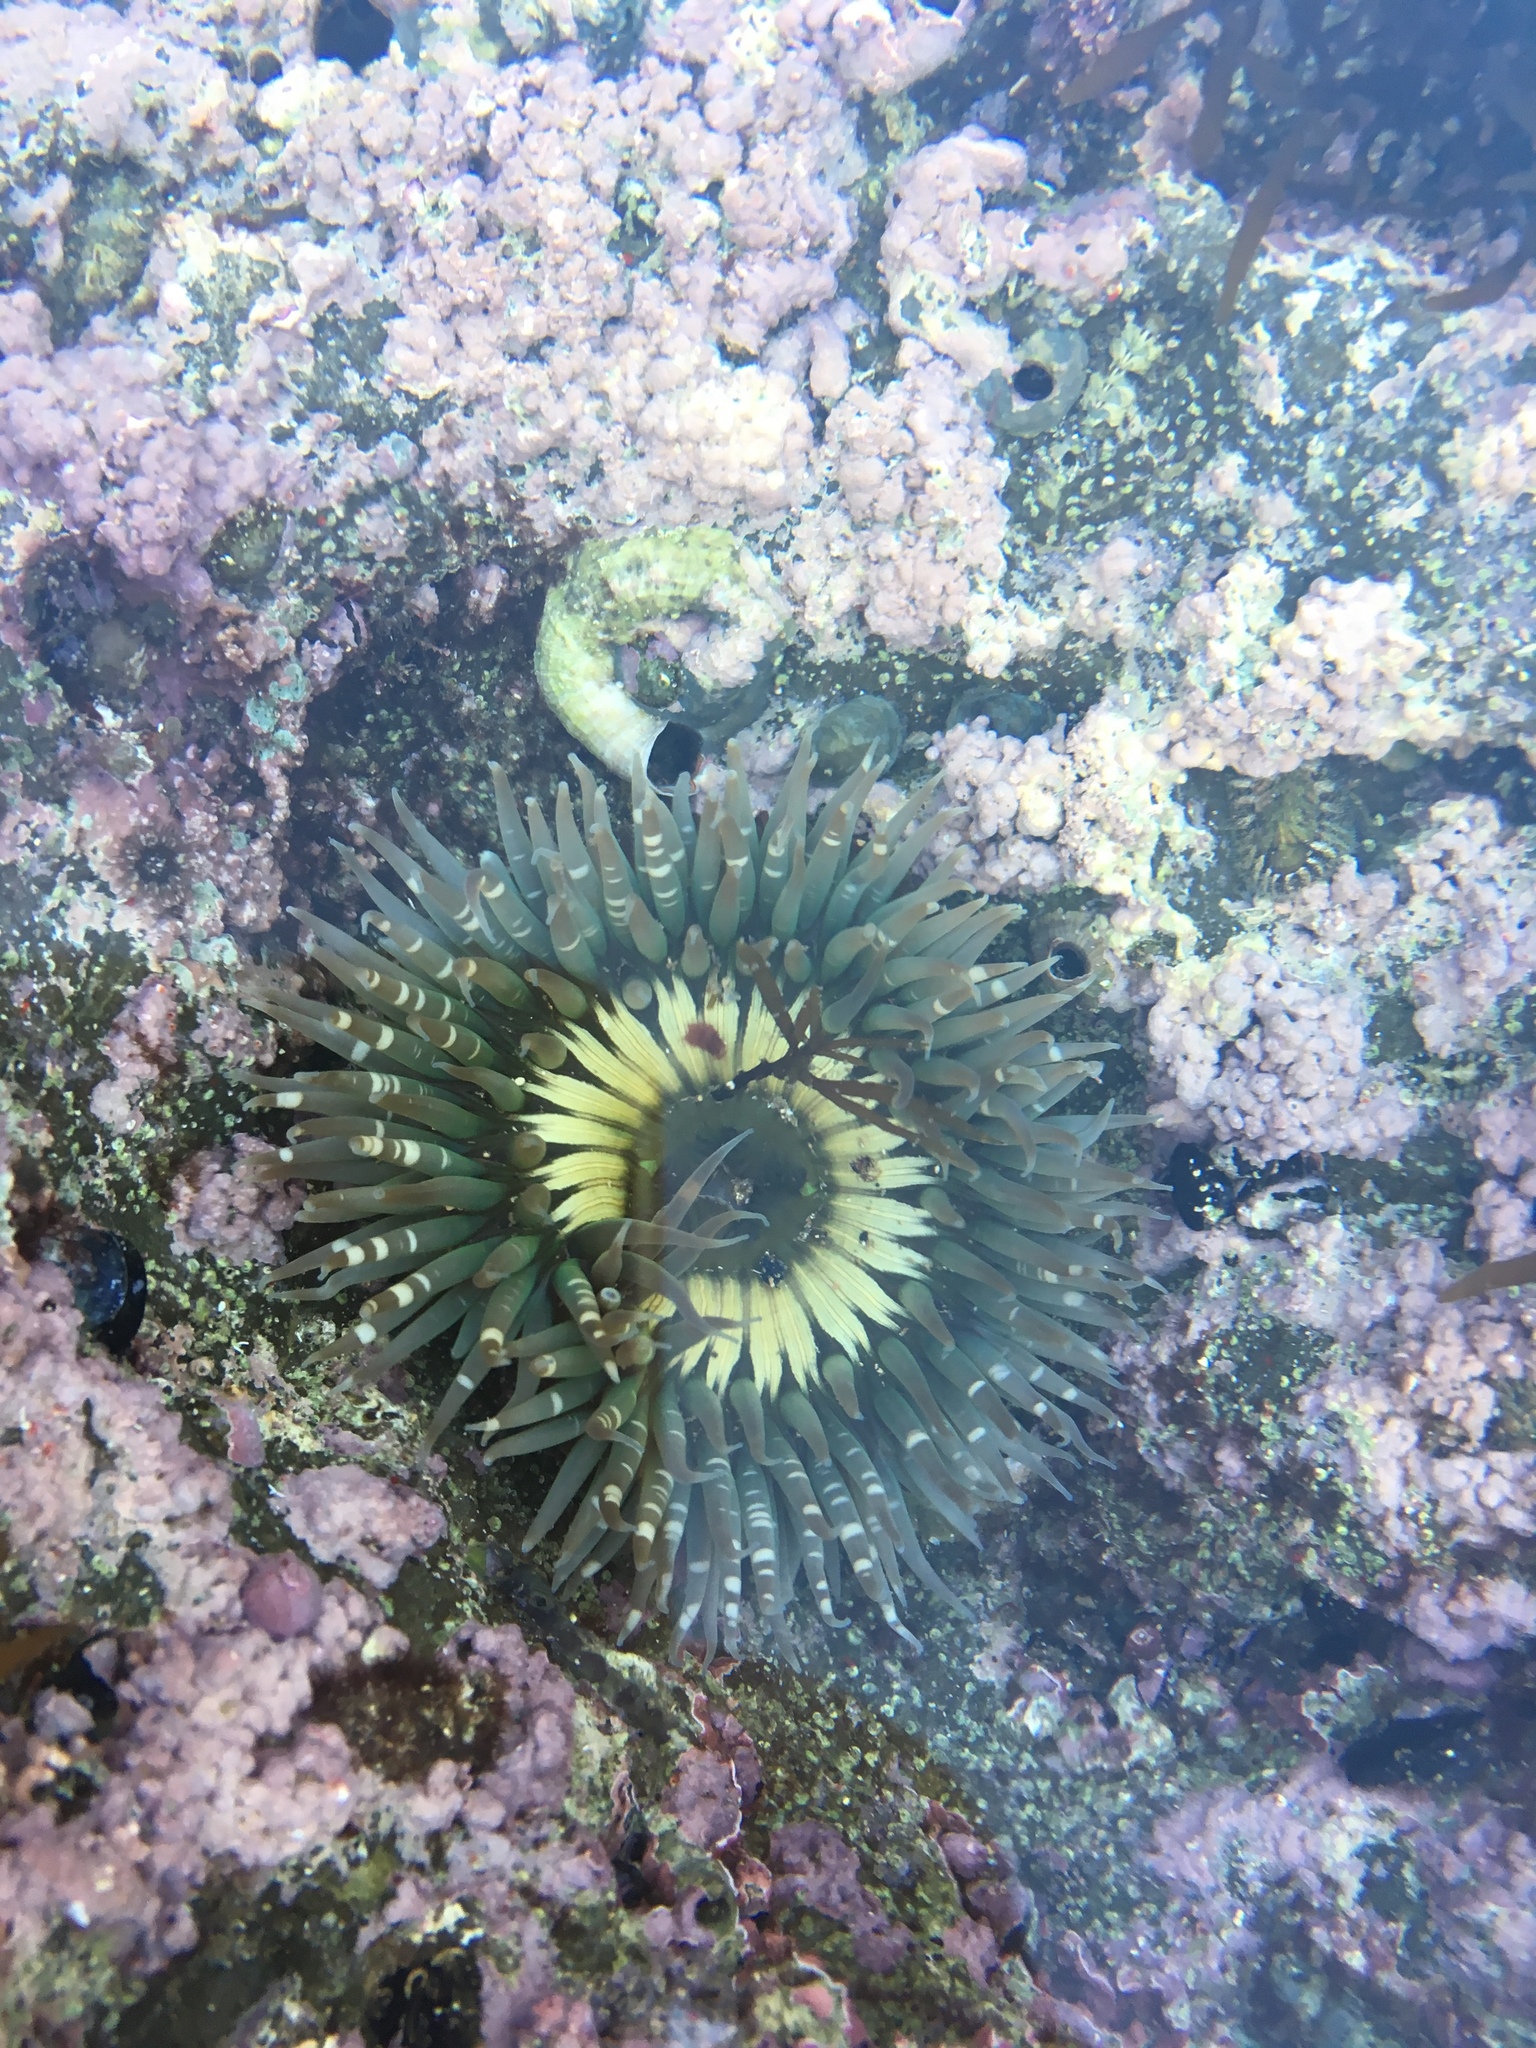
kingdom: Animalia
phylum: Cnidaria
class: Anthozoa
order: Actiniaria
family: Actiniidae
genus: Anthopleura
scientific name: Anthopleura sola
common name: Sun anemone
